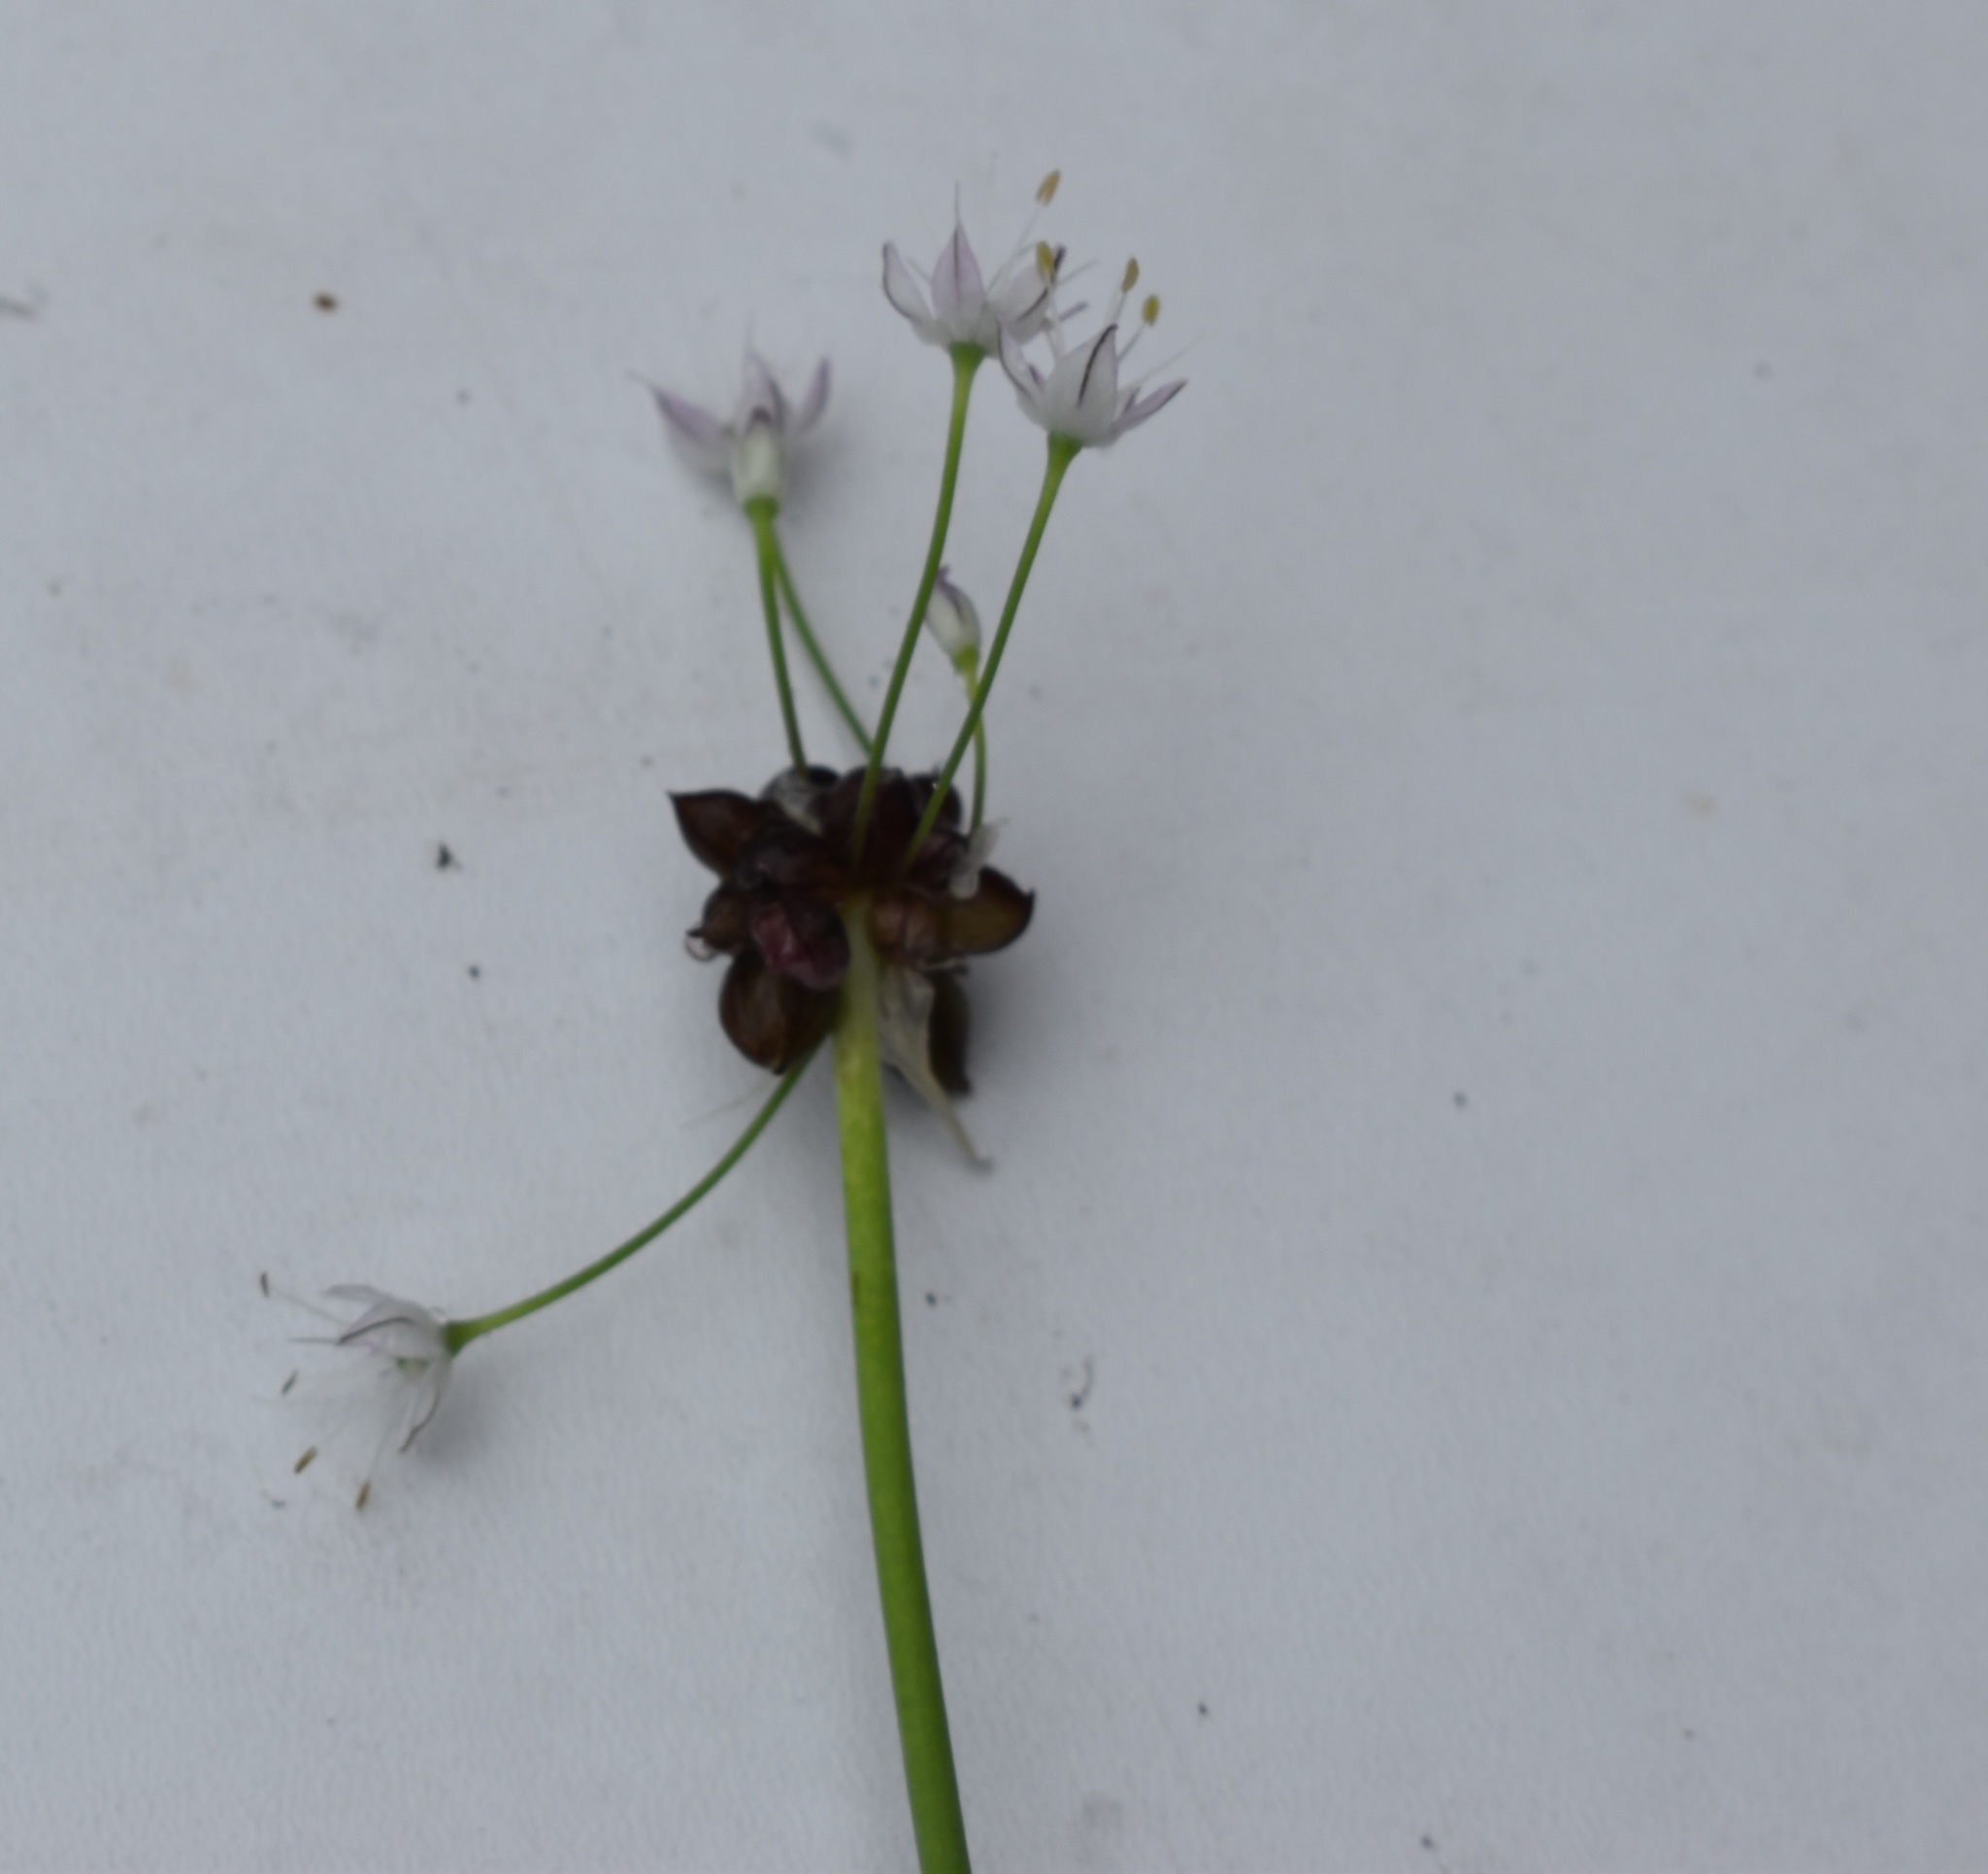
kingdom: Plantae
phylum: Tracheophyta
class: Liliopsida
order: Asparagales
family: Amaryllidaceae
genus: Allium
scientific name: Allium macrostemon
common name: Chinese garlic
